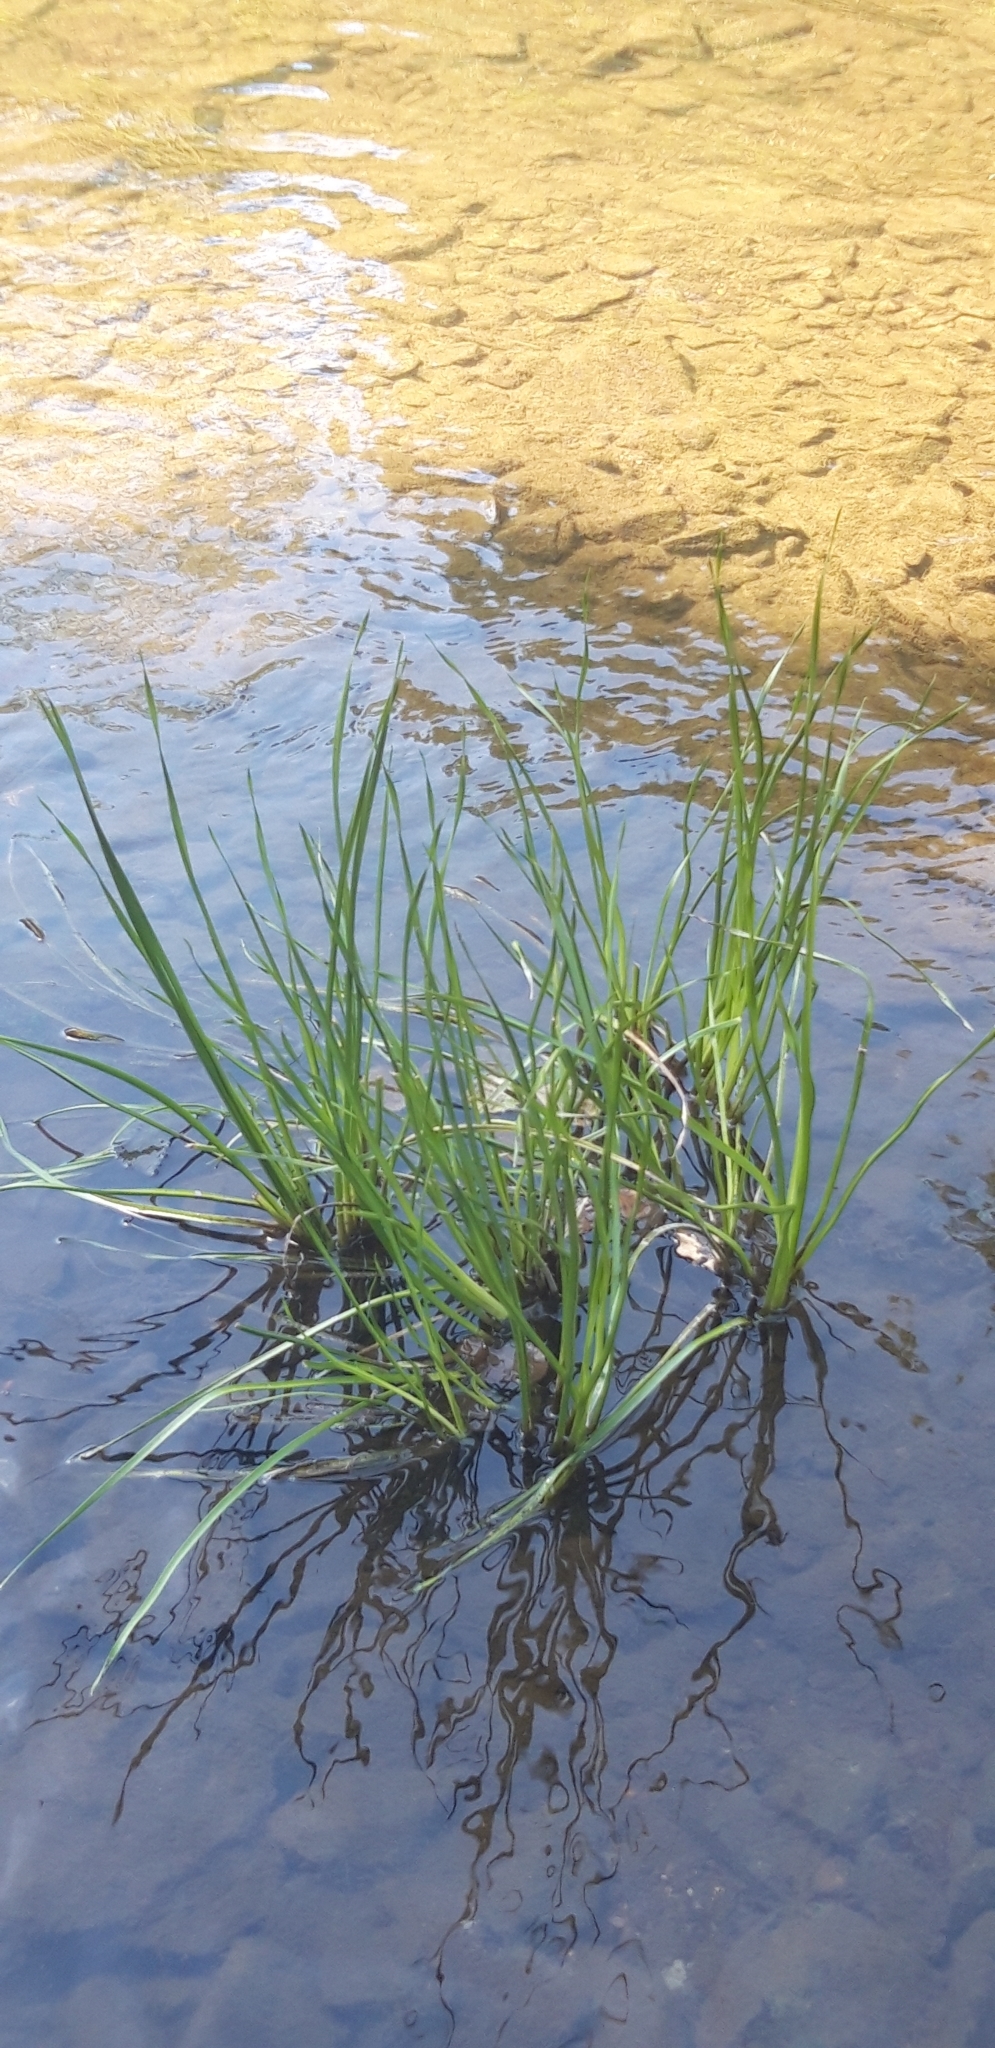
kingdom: Plantae
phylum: Tracheophyta
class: Liliopsida
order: Alismatales
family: Butomaceae
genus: Butomus
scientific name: Butomus umbellatus
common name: Flowering-rush
